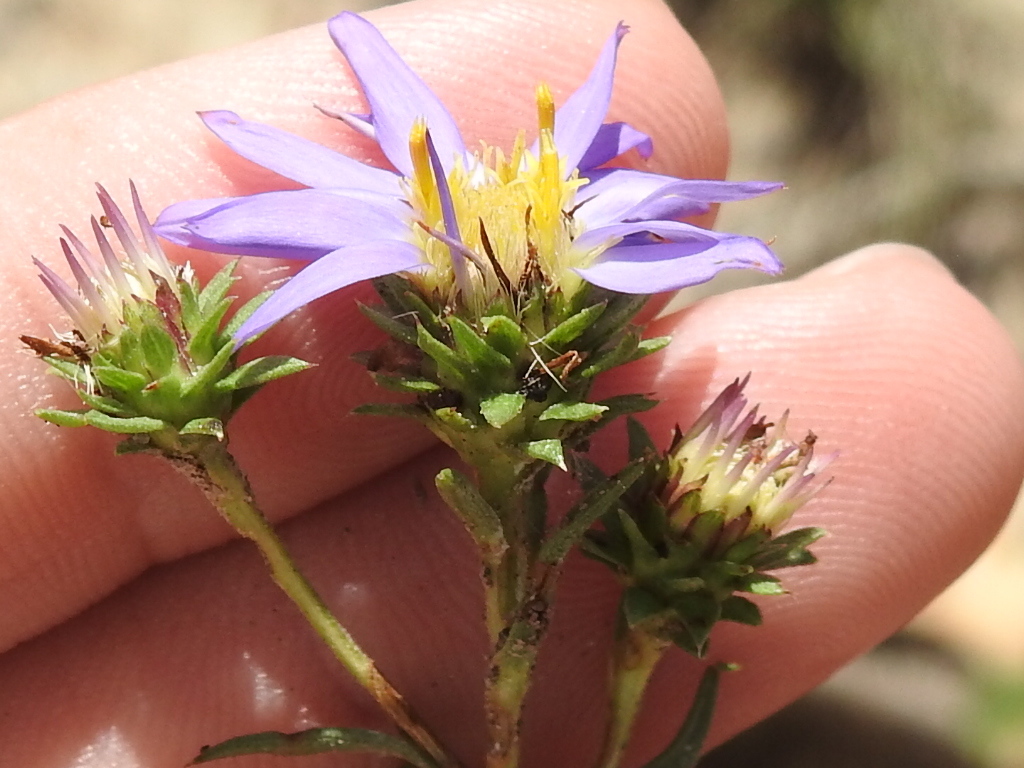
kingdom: Plantae
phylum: Tracheophyta
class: Magnoliopsida
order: Asterales
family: Asteraceae
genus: Eurybia
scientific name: Eurybia hemispherica
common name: Showy aster
